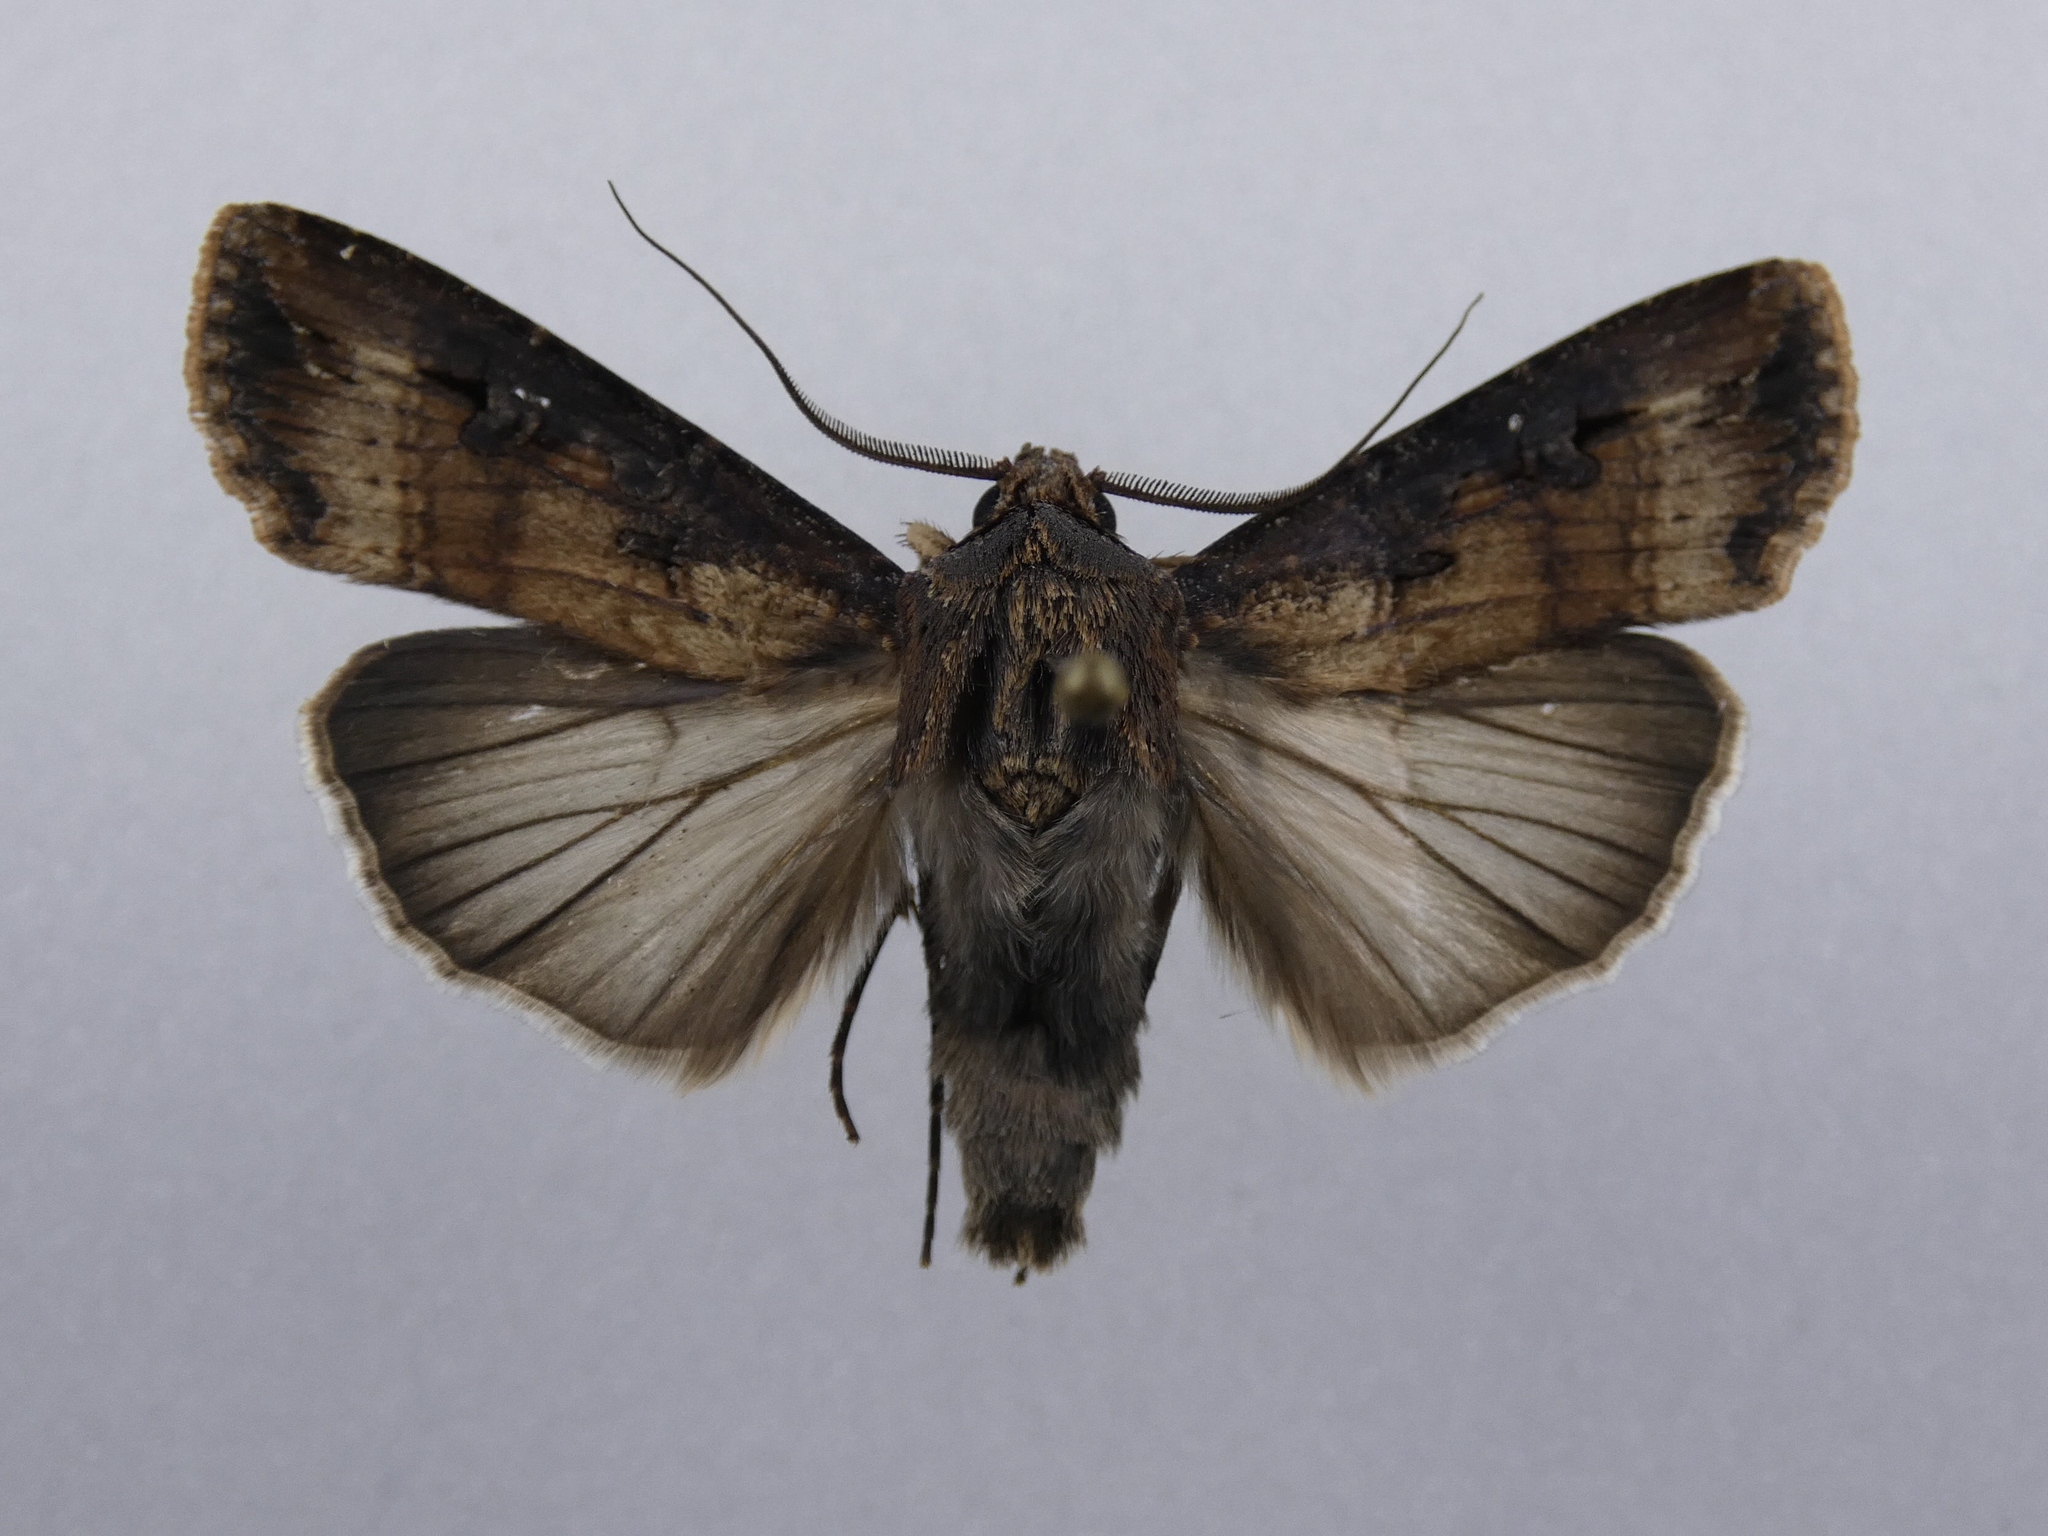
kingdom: Animalia
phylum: Arthropoda
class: Insecta
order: Lepidoptera
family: Noctuidae
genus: Agrotis
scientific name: Agrotis ipsilon
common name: Dark sword-grass
